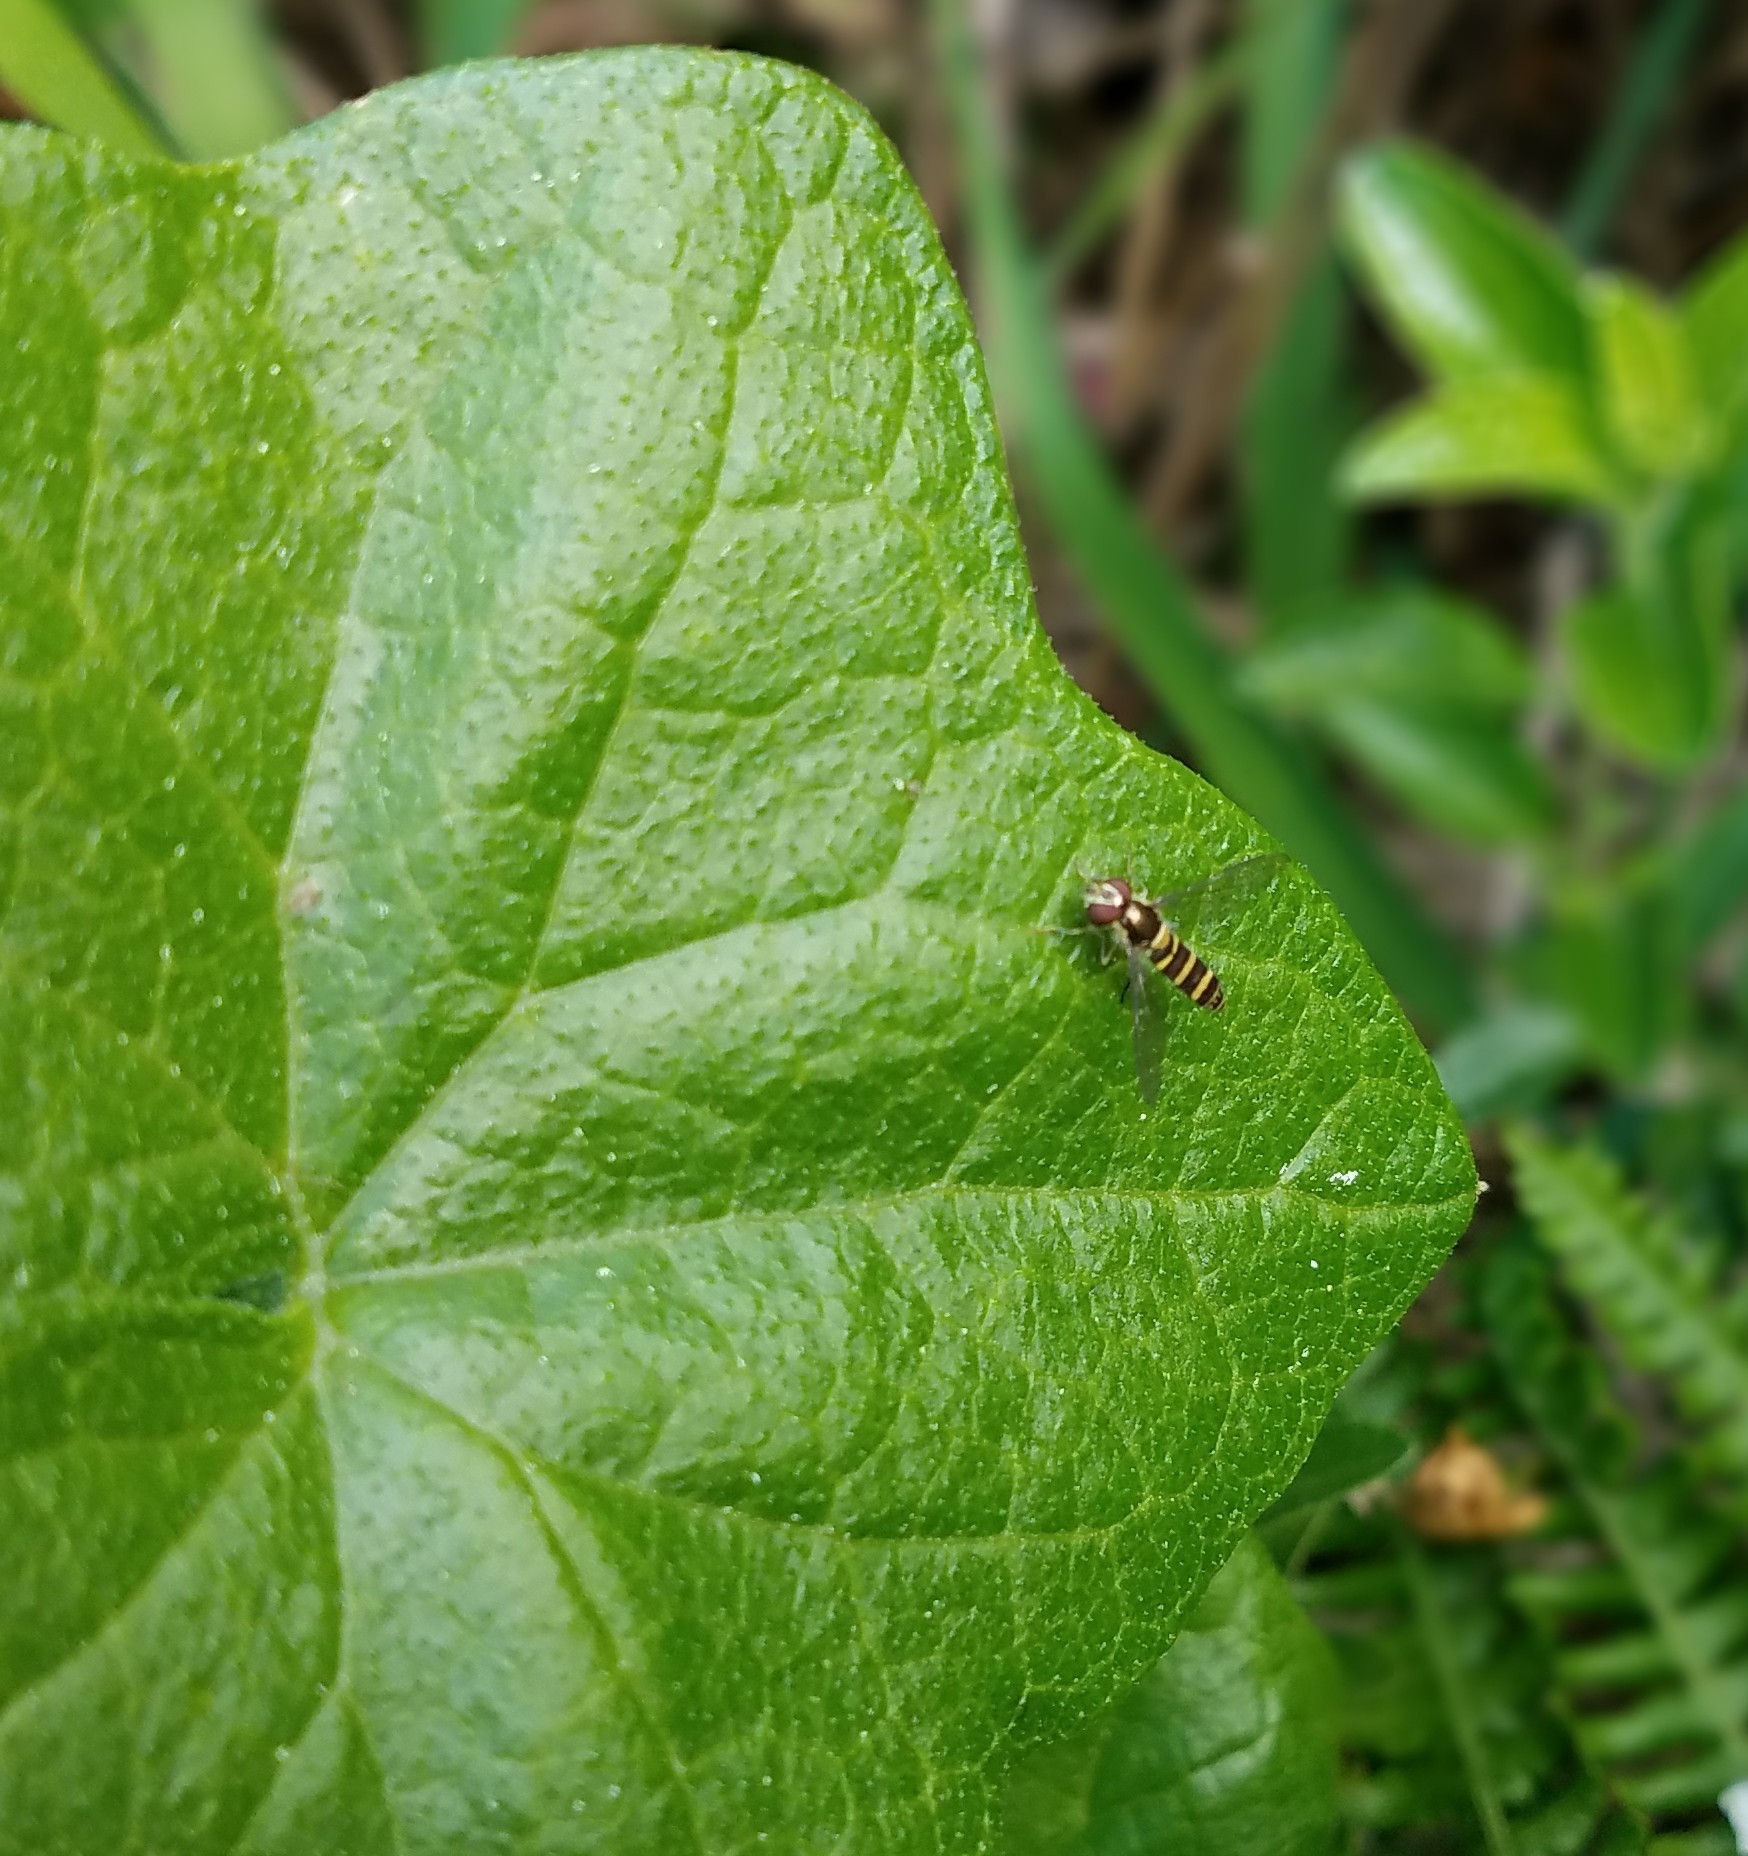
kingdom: Animalia
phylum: Arthropoda
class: Insecta
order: Diptera
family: Syrphidae
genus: Fazia
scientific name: Fazia micrura
